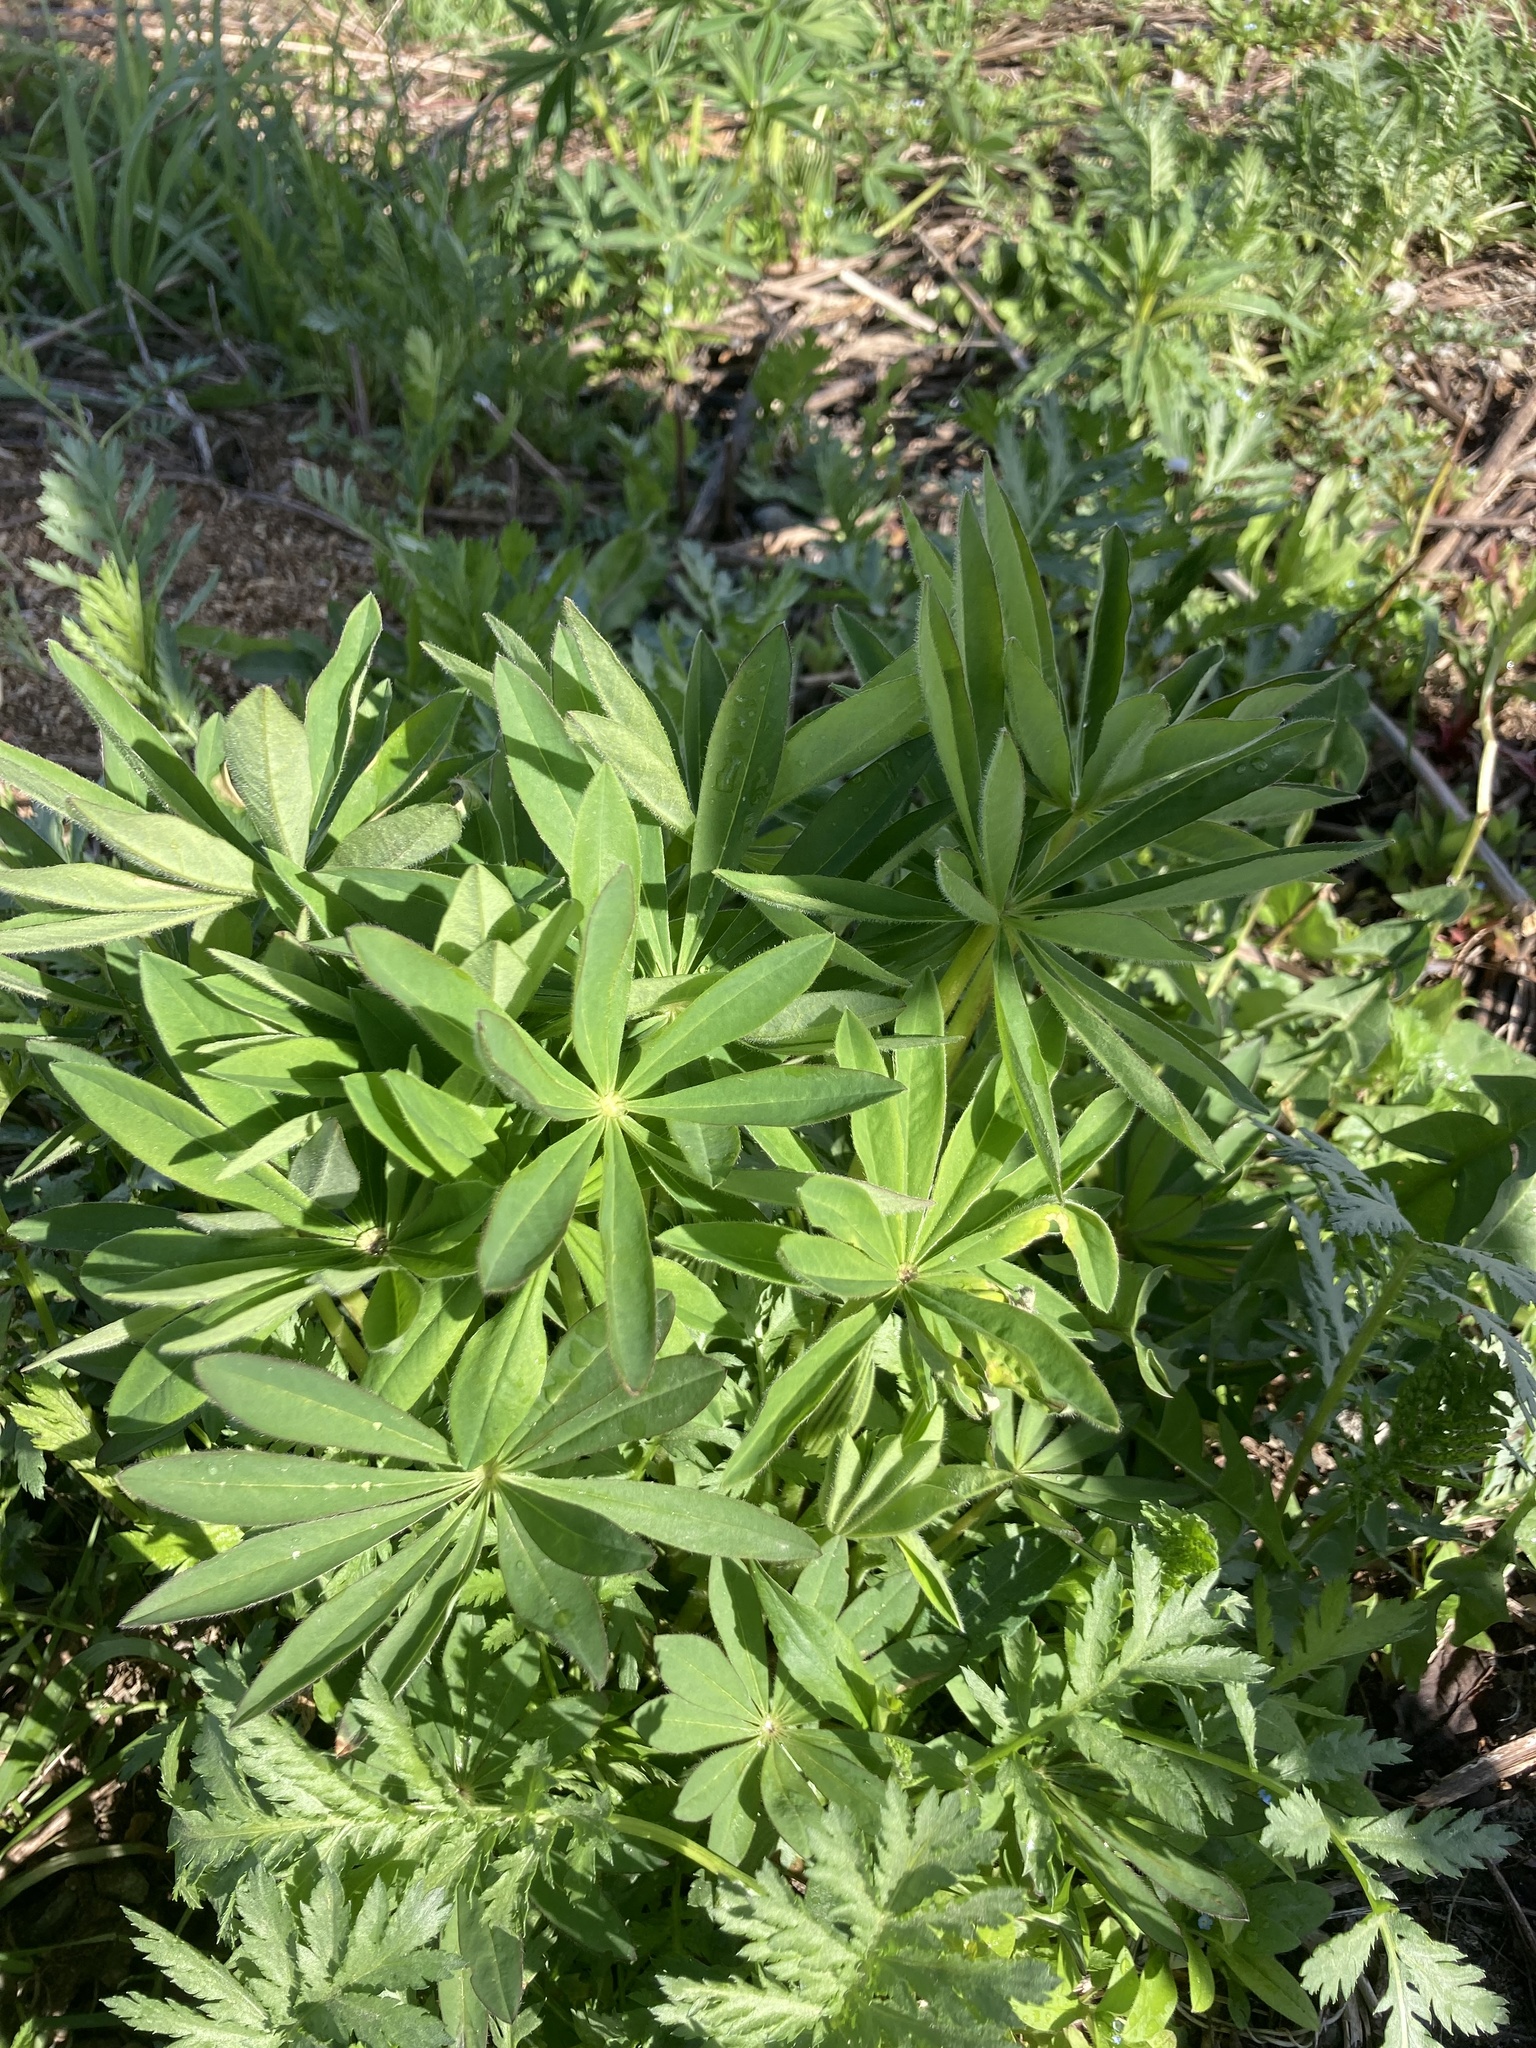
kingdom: Plantae
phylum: Tracheophyta
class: Magnoliopsida
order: Fabales
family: Fabaceae
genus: Lupinus
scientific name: Lupinus polyphyllus
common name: Garden lupin
